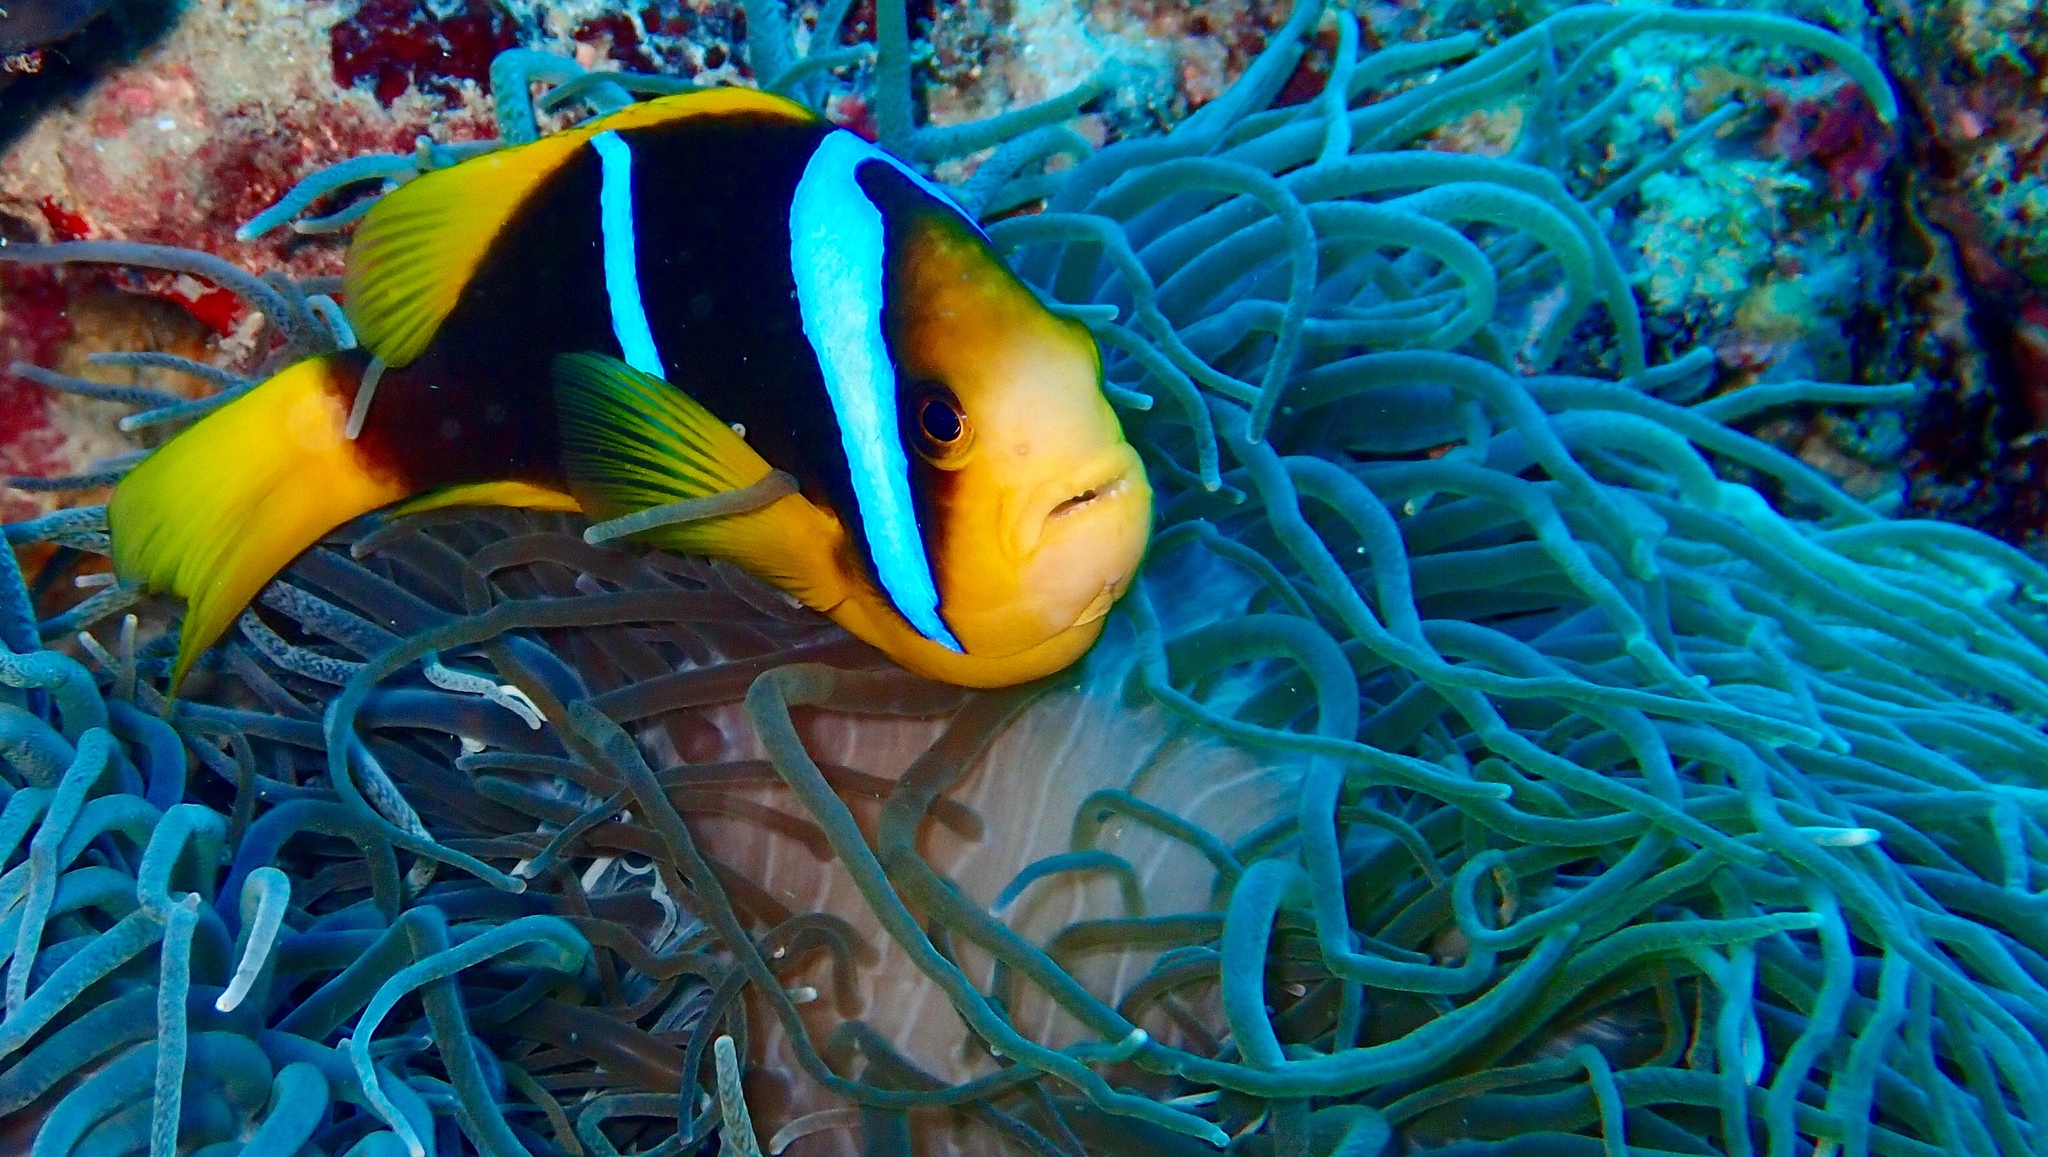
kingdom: Animalia
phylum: Chordata
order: Perciformes
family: Pomacentridae
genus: Amphiprion
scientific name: Amphiprion chrysopterus
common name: Orange-fin anemonefish
